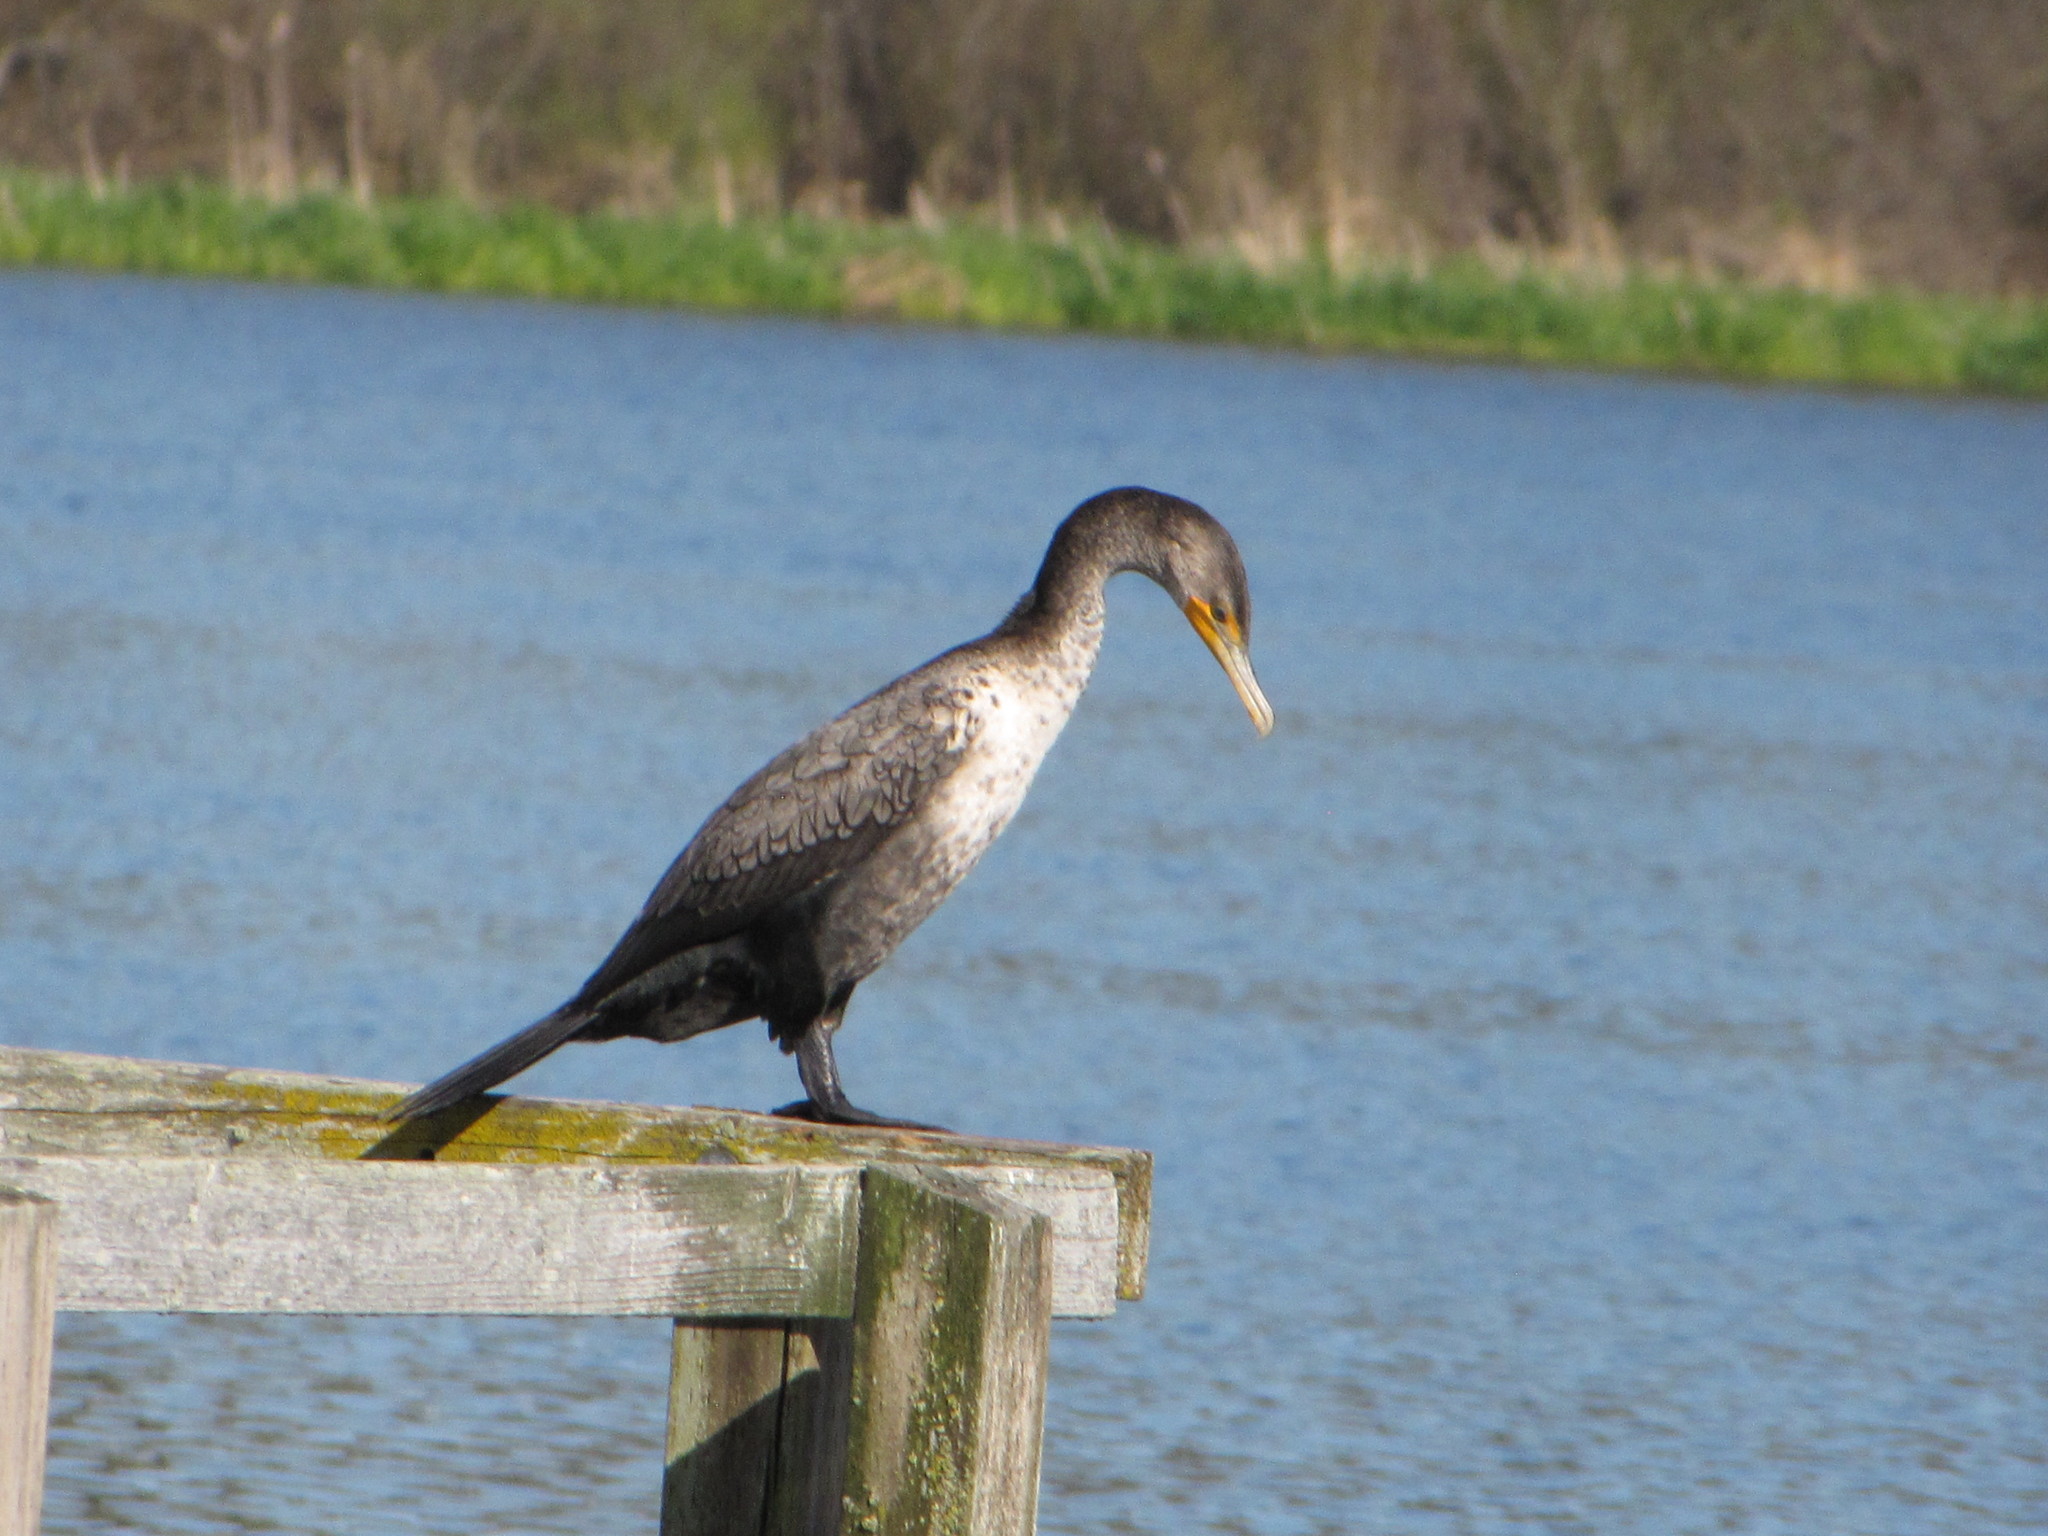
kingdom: Animalia
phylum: Chordata
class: Aves
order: Suliformes
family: Phalacrocoracidae
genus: Phalacrocorax
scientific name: Phalacrocorax auritus
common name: Double-crested cormorant
